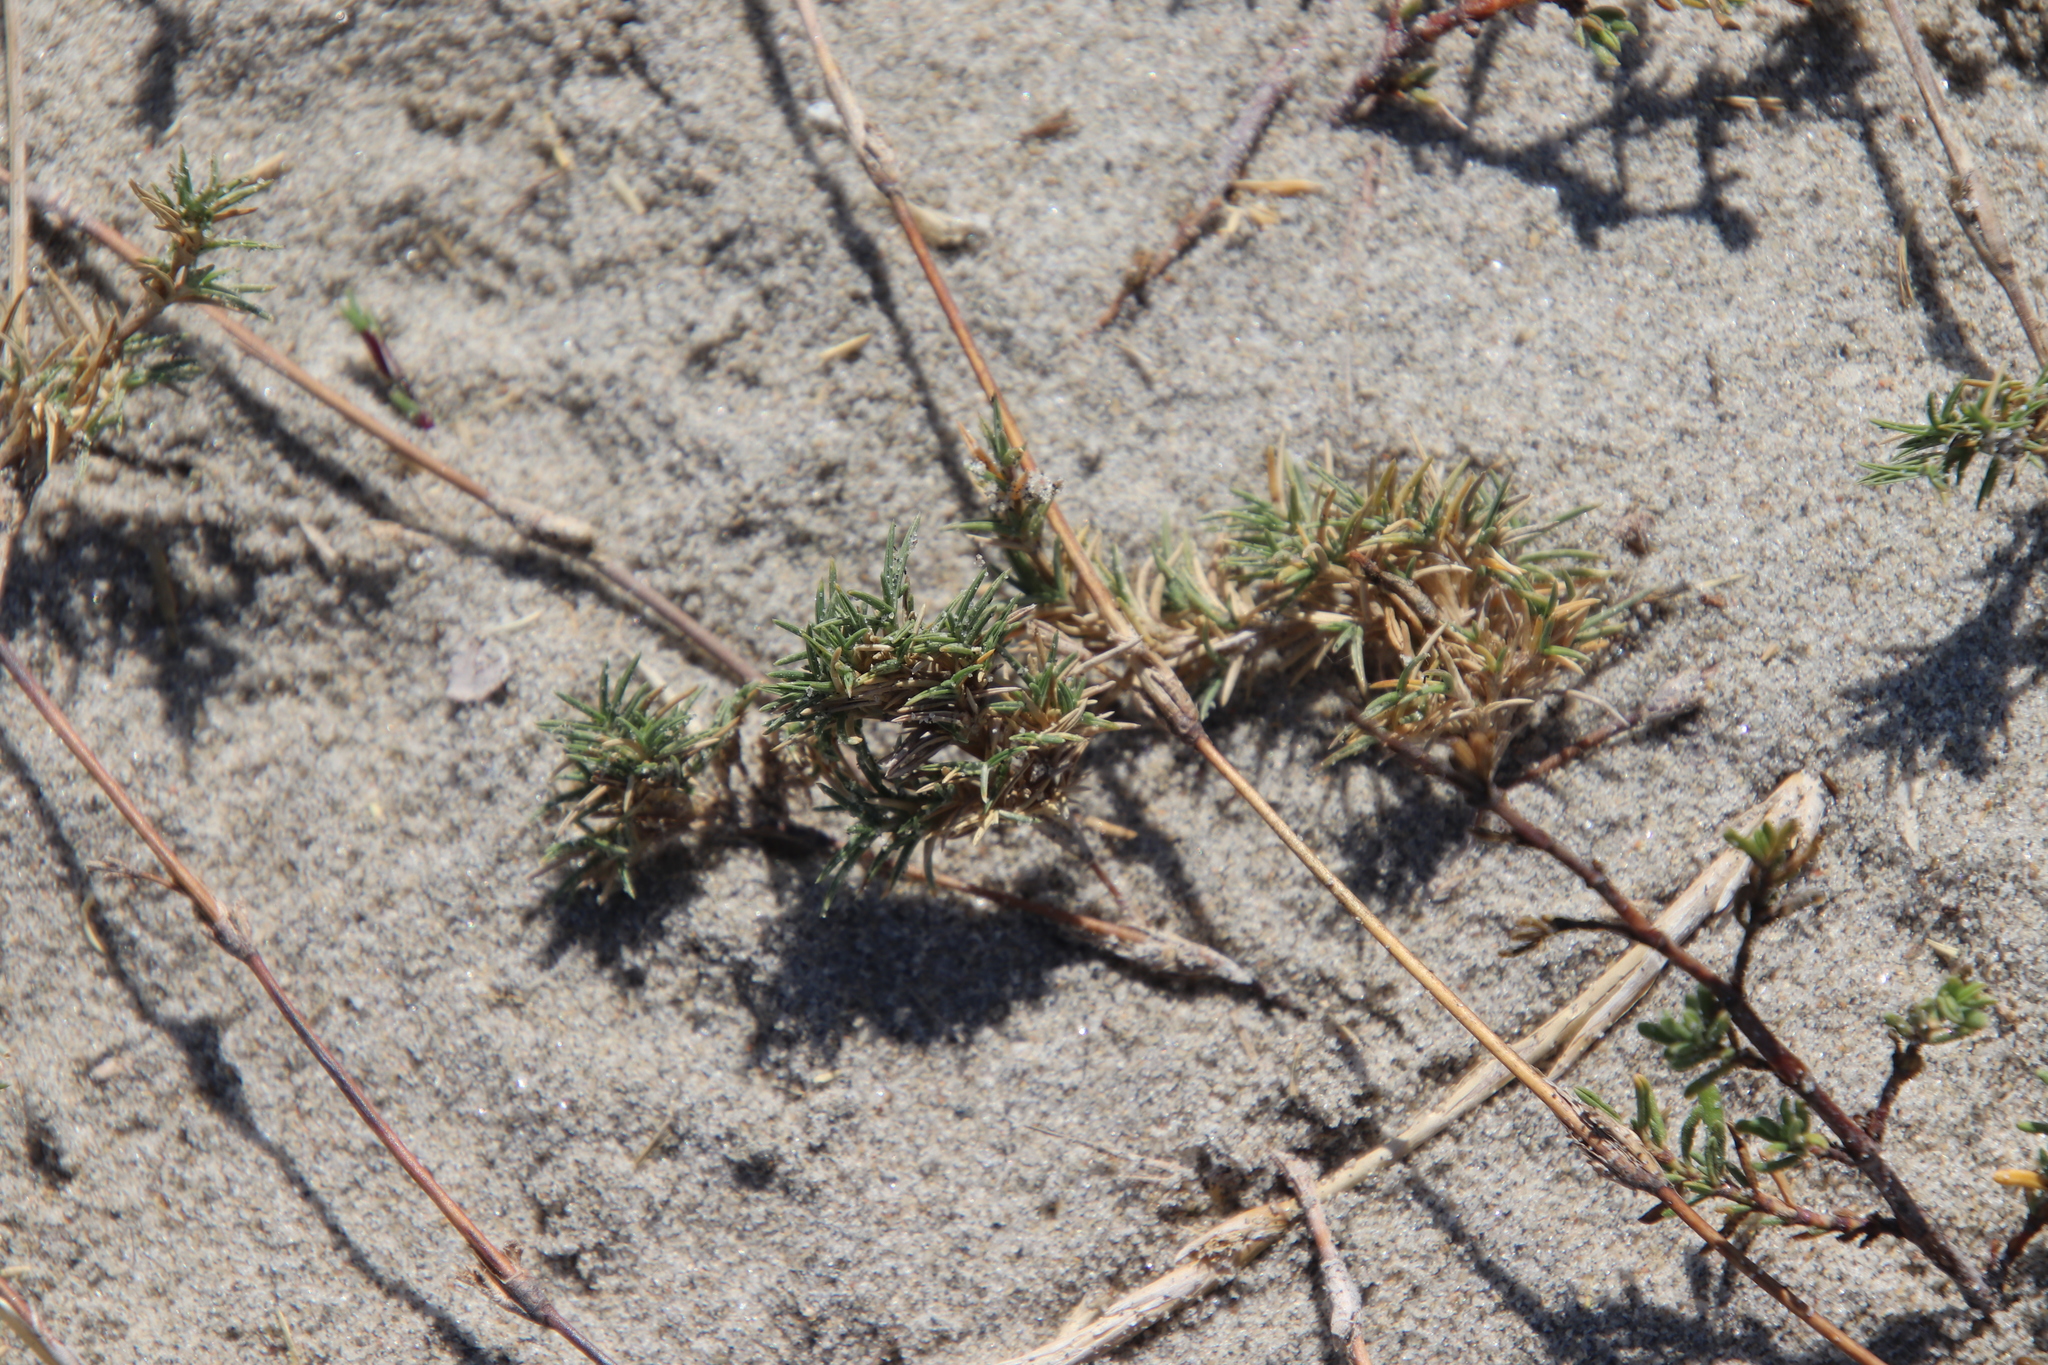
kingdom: Plantae
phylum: Tracheophyta
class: Liliopsida
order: Poales
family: Poaceae
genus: Distichlis
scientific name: Distichlis littoralis
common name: Shore grass
